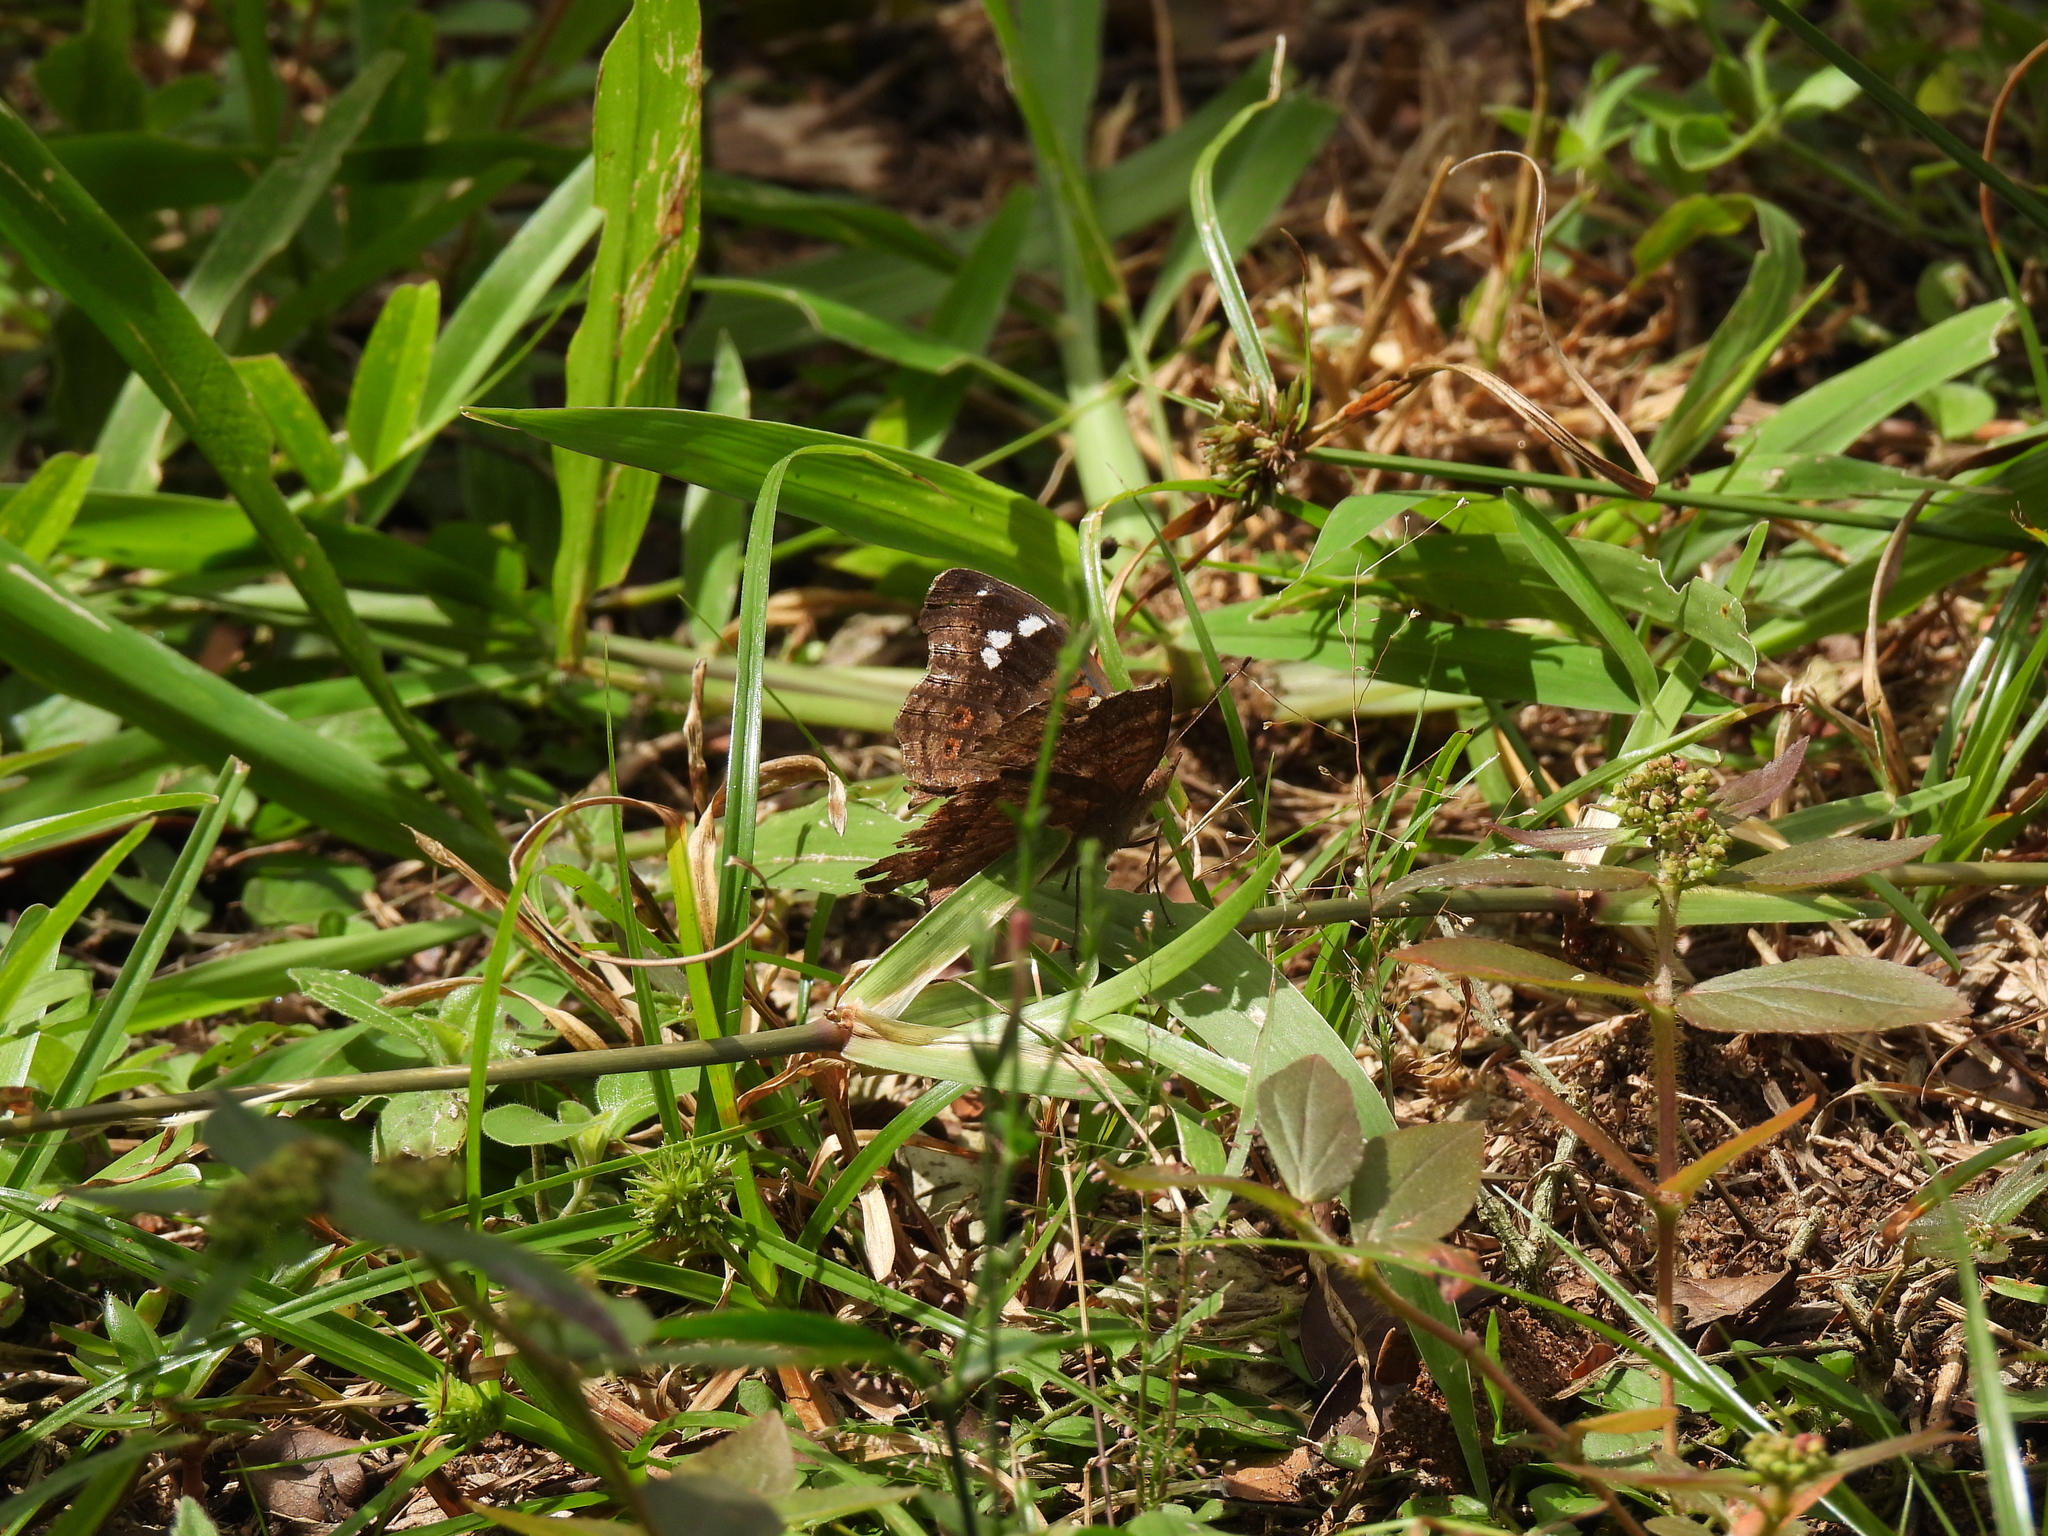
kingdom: Animalia
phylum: Arthropoda
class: Insecta
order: Lepidoptera
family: Nymphalidae
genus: Junonia
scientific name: Junonia natalica
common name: Brown pansy
